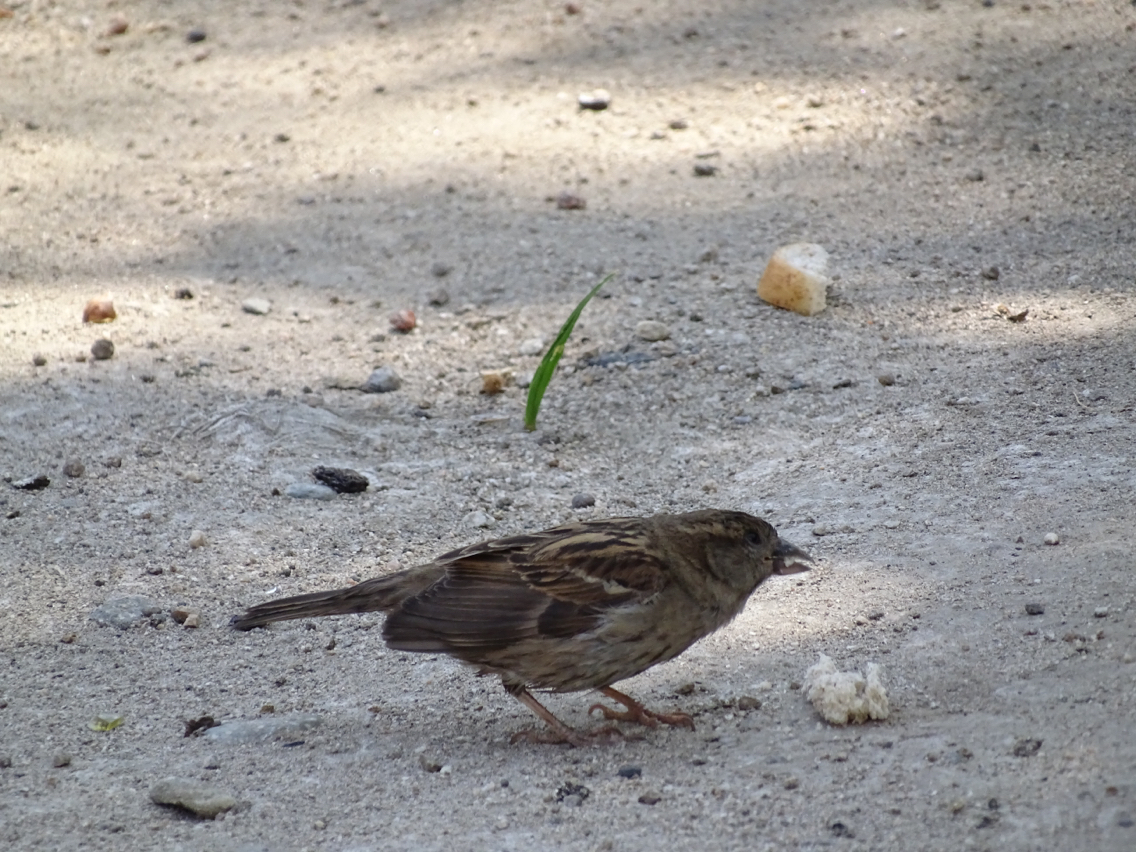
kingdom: Animalia
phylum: Chordata
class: Aves
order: Passeriformes
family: Passeridae
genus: Passer
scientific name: Passer domesticus
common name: House sparrow
